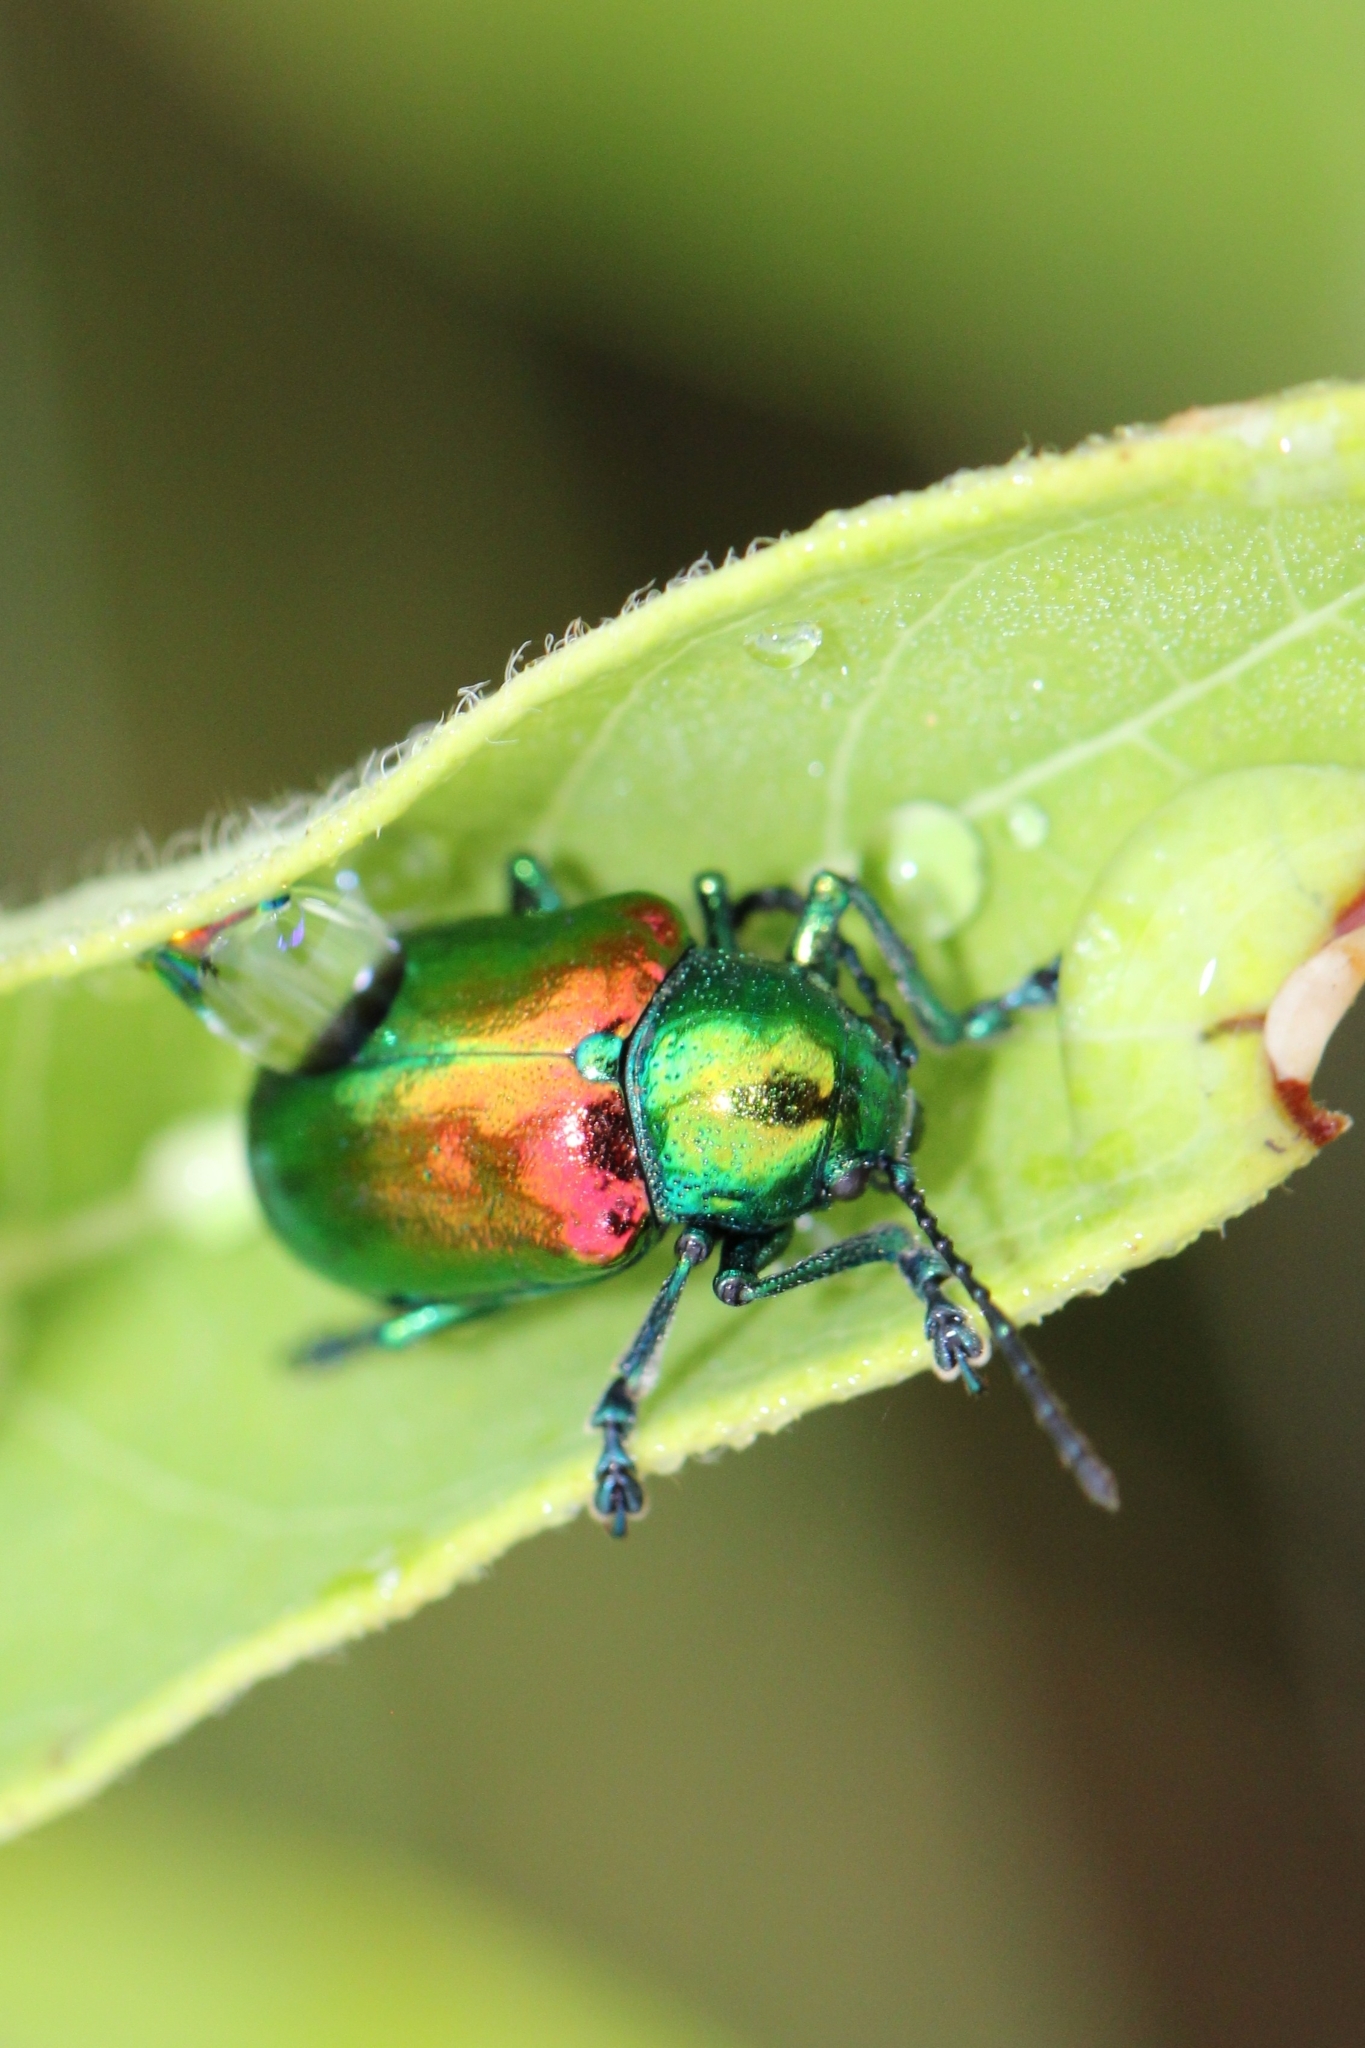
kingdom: Animalia
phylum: Arthropoda
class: Insecta
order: Coleoptera
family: Chrysomelidae
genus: Chrysochus
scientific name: Chrysochus auratus
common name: Dogbane leaf beetle
